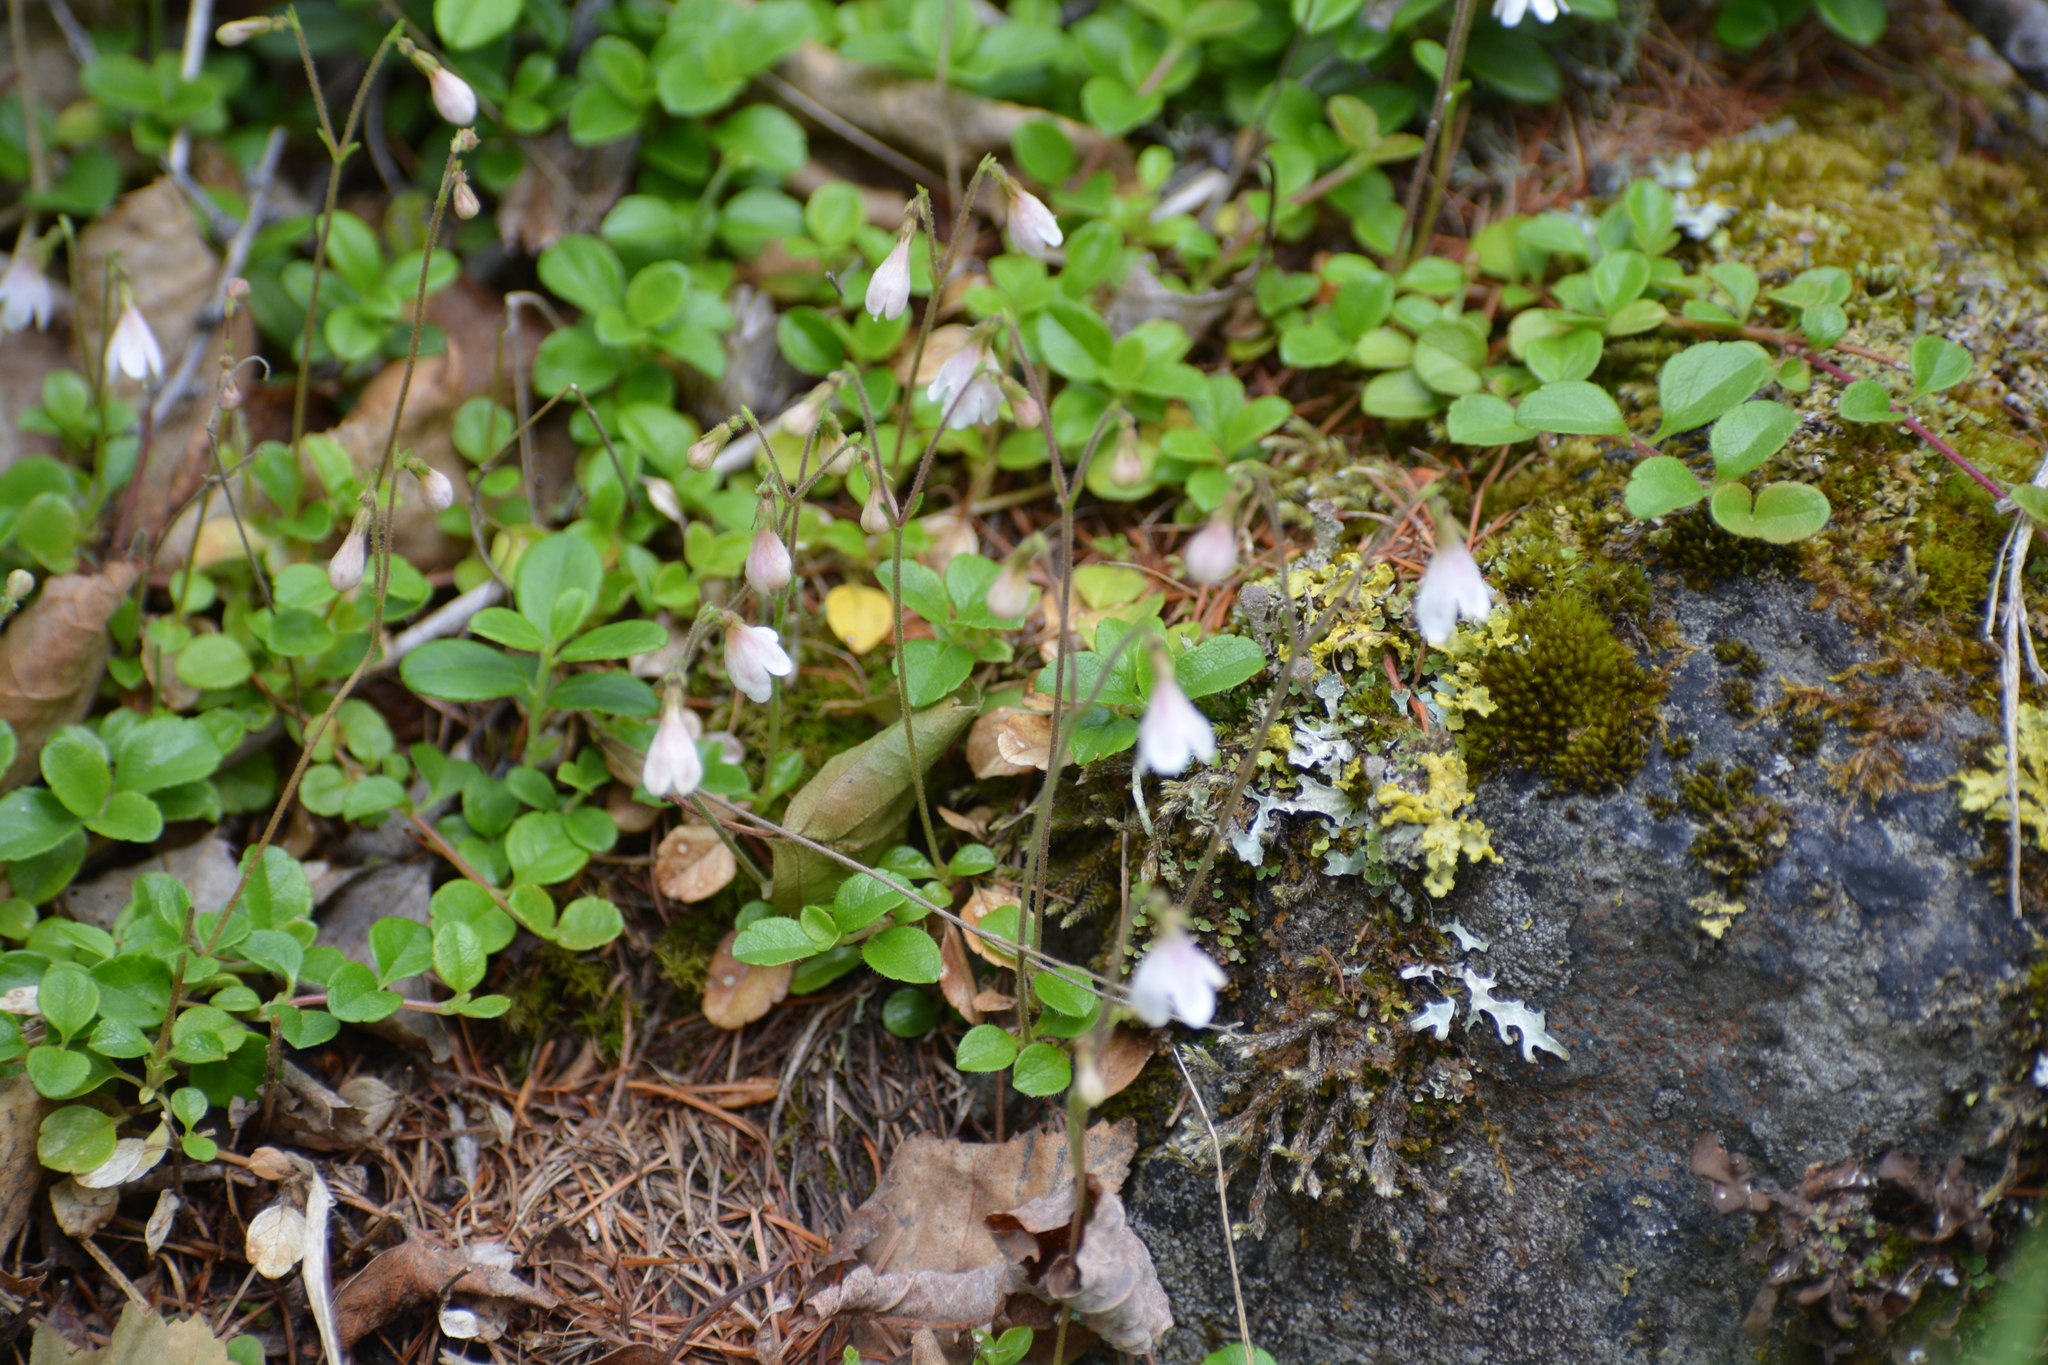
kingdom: Plantae
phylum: Tracheophyta
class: Magnoliopsida
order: Dipsacales
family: Caprifoliaceae
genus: Linnaea
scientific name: Linnaea borealis
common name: Twinflower
